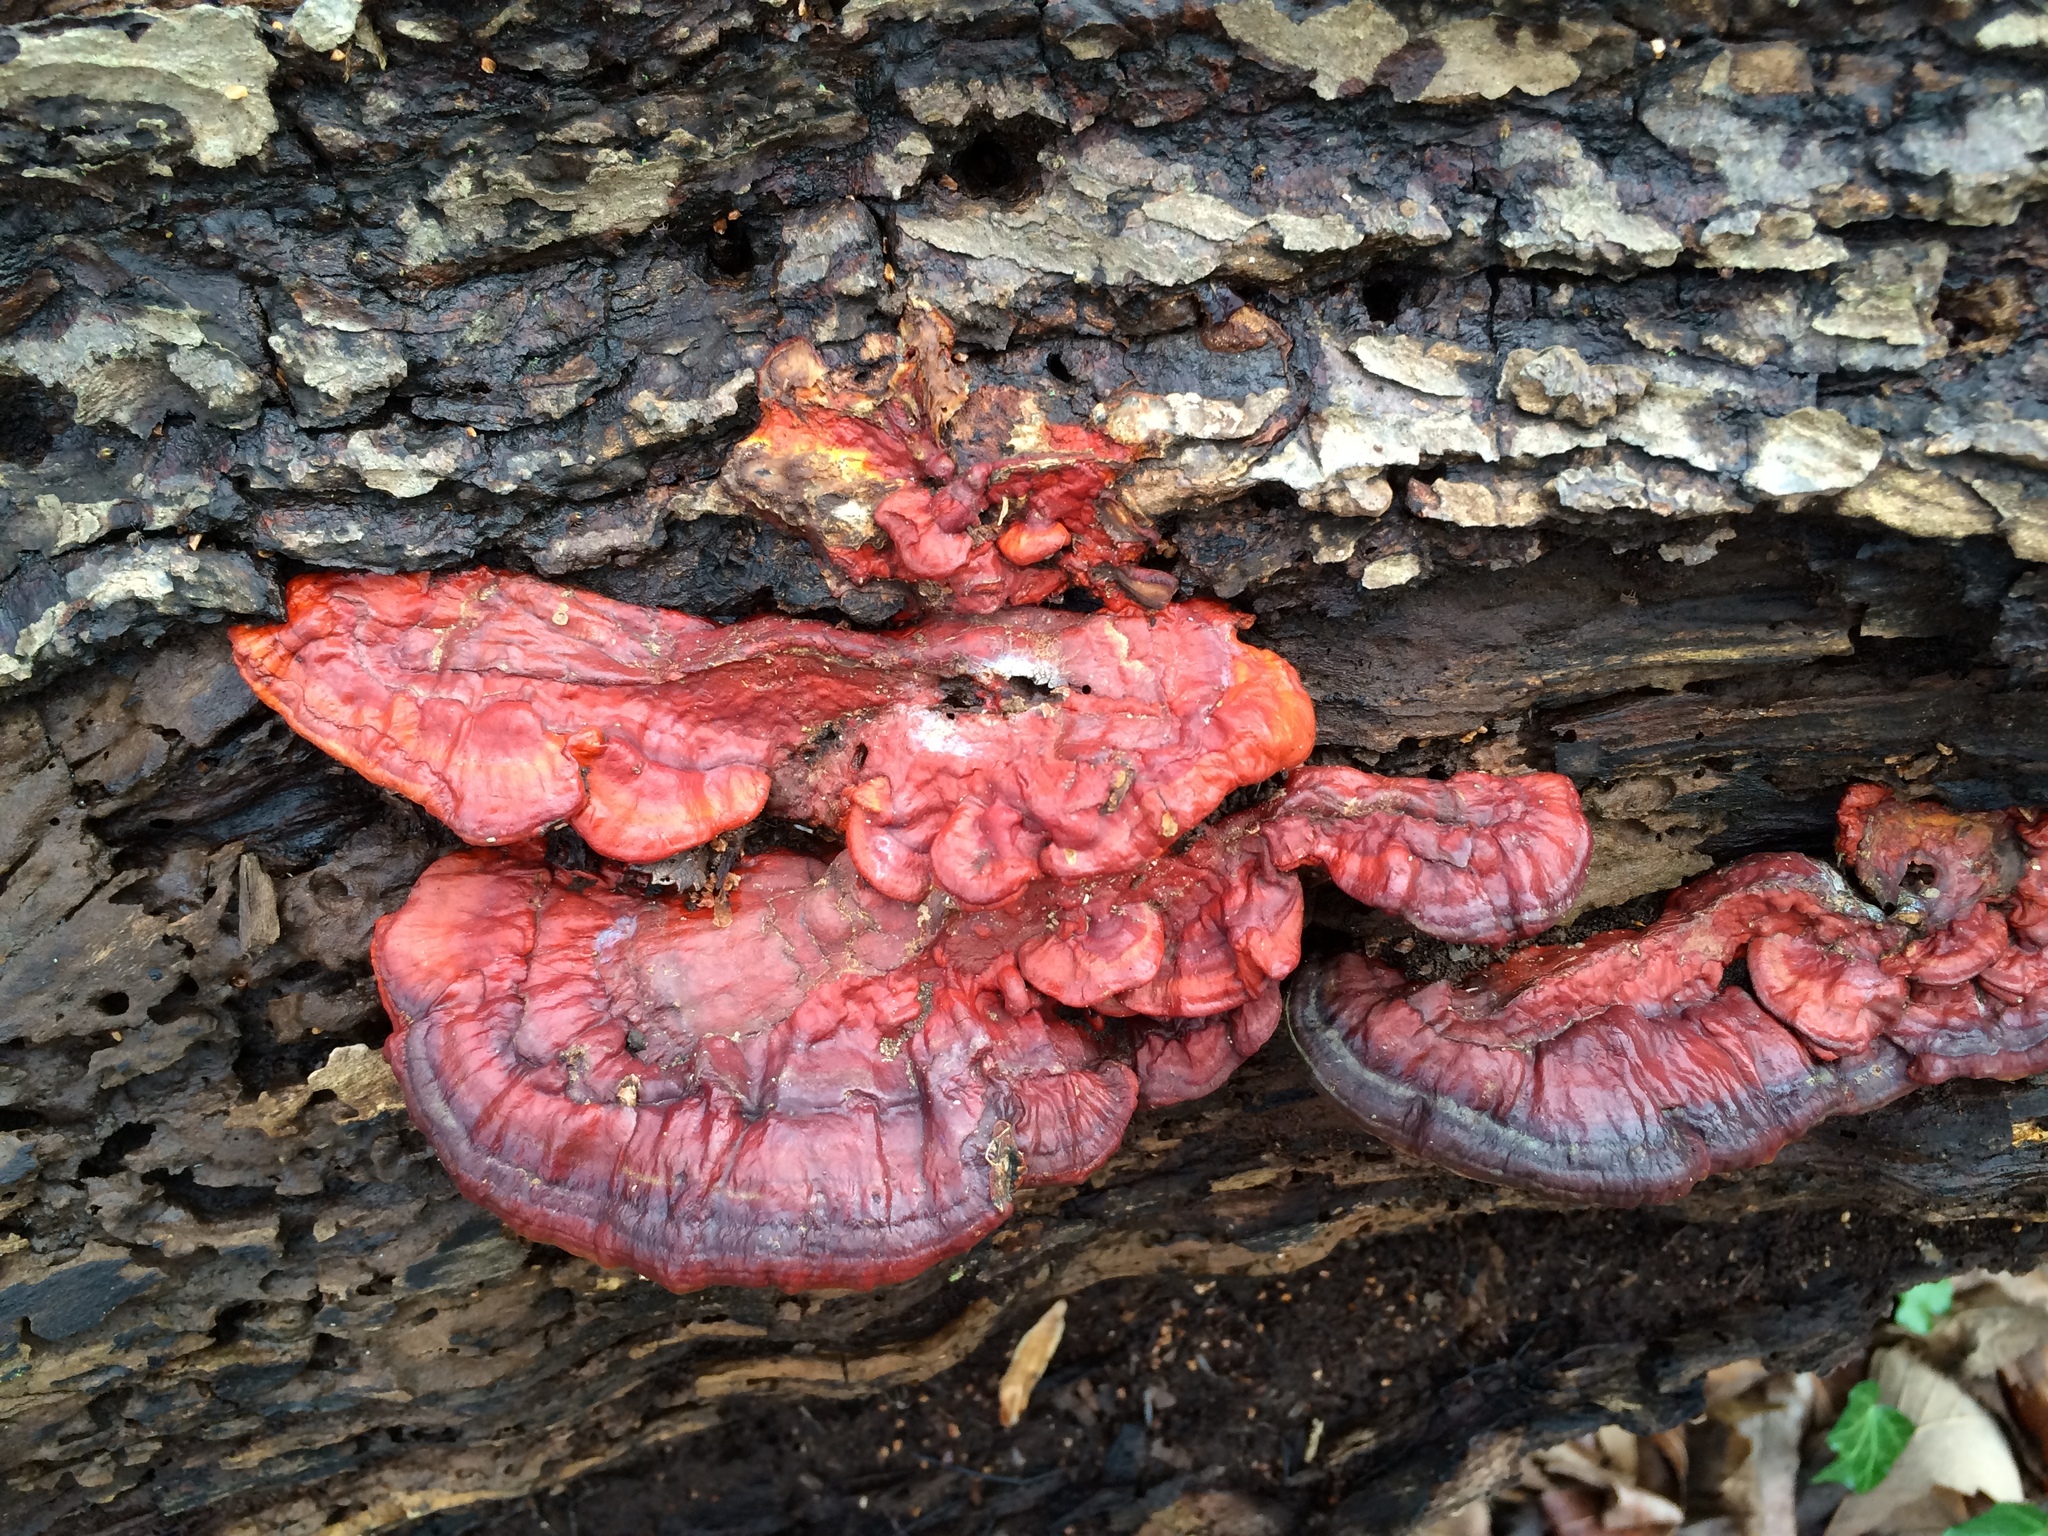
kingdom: Fungi
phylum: Basidiomycota
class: Agaricomycetes
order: Polyporales
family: Polyporaceae
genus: Ganoderma
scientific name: Ganoderma resinaceum
